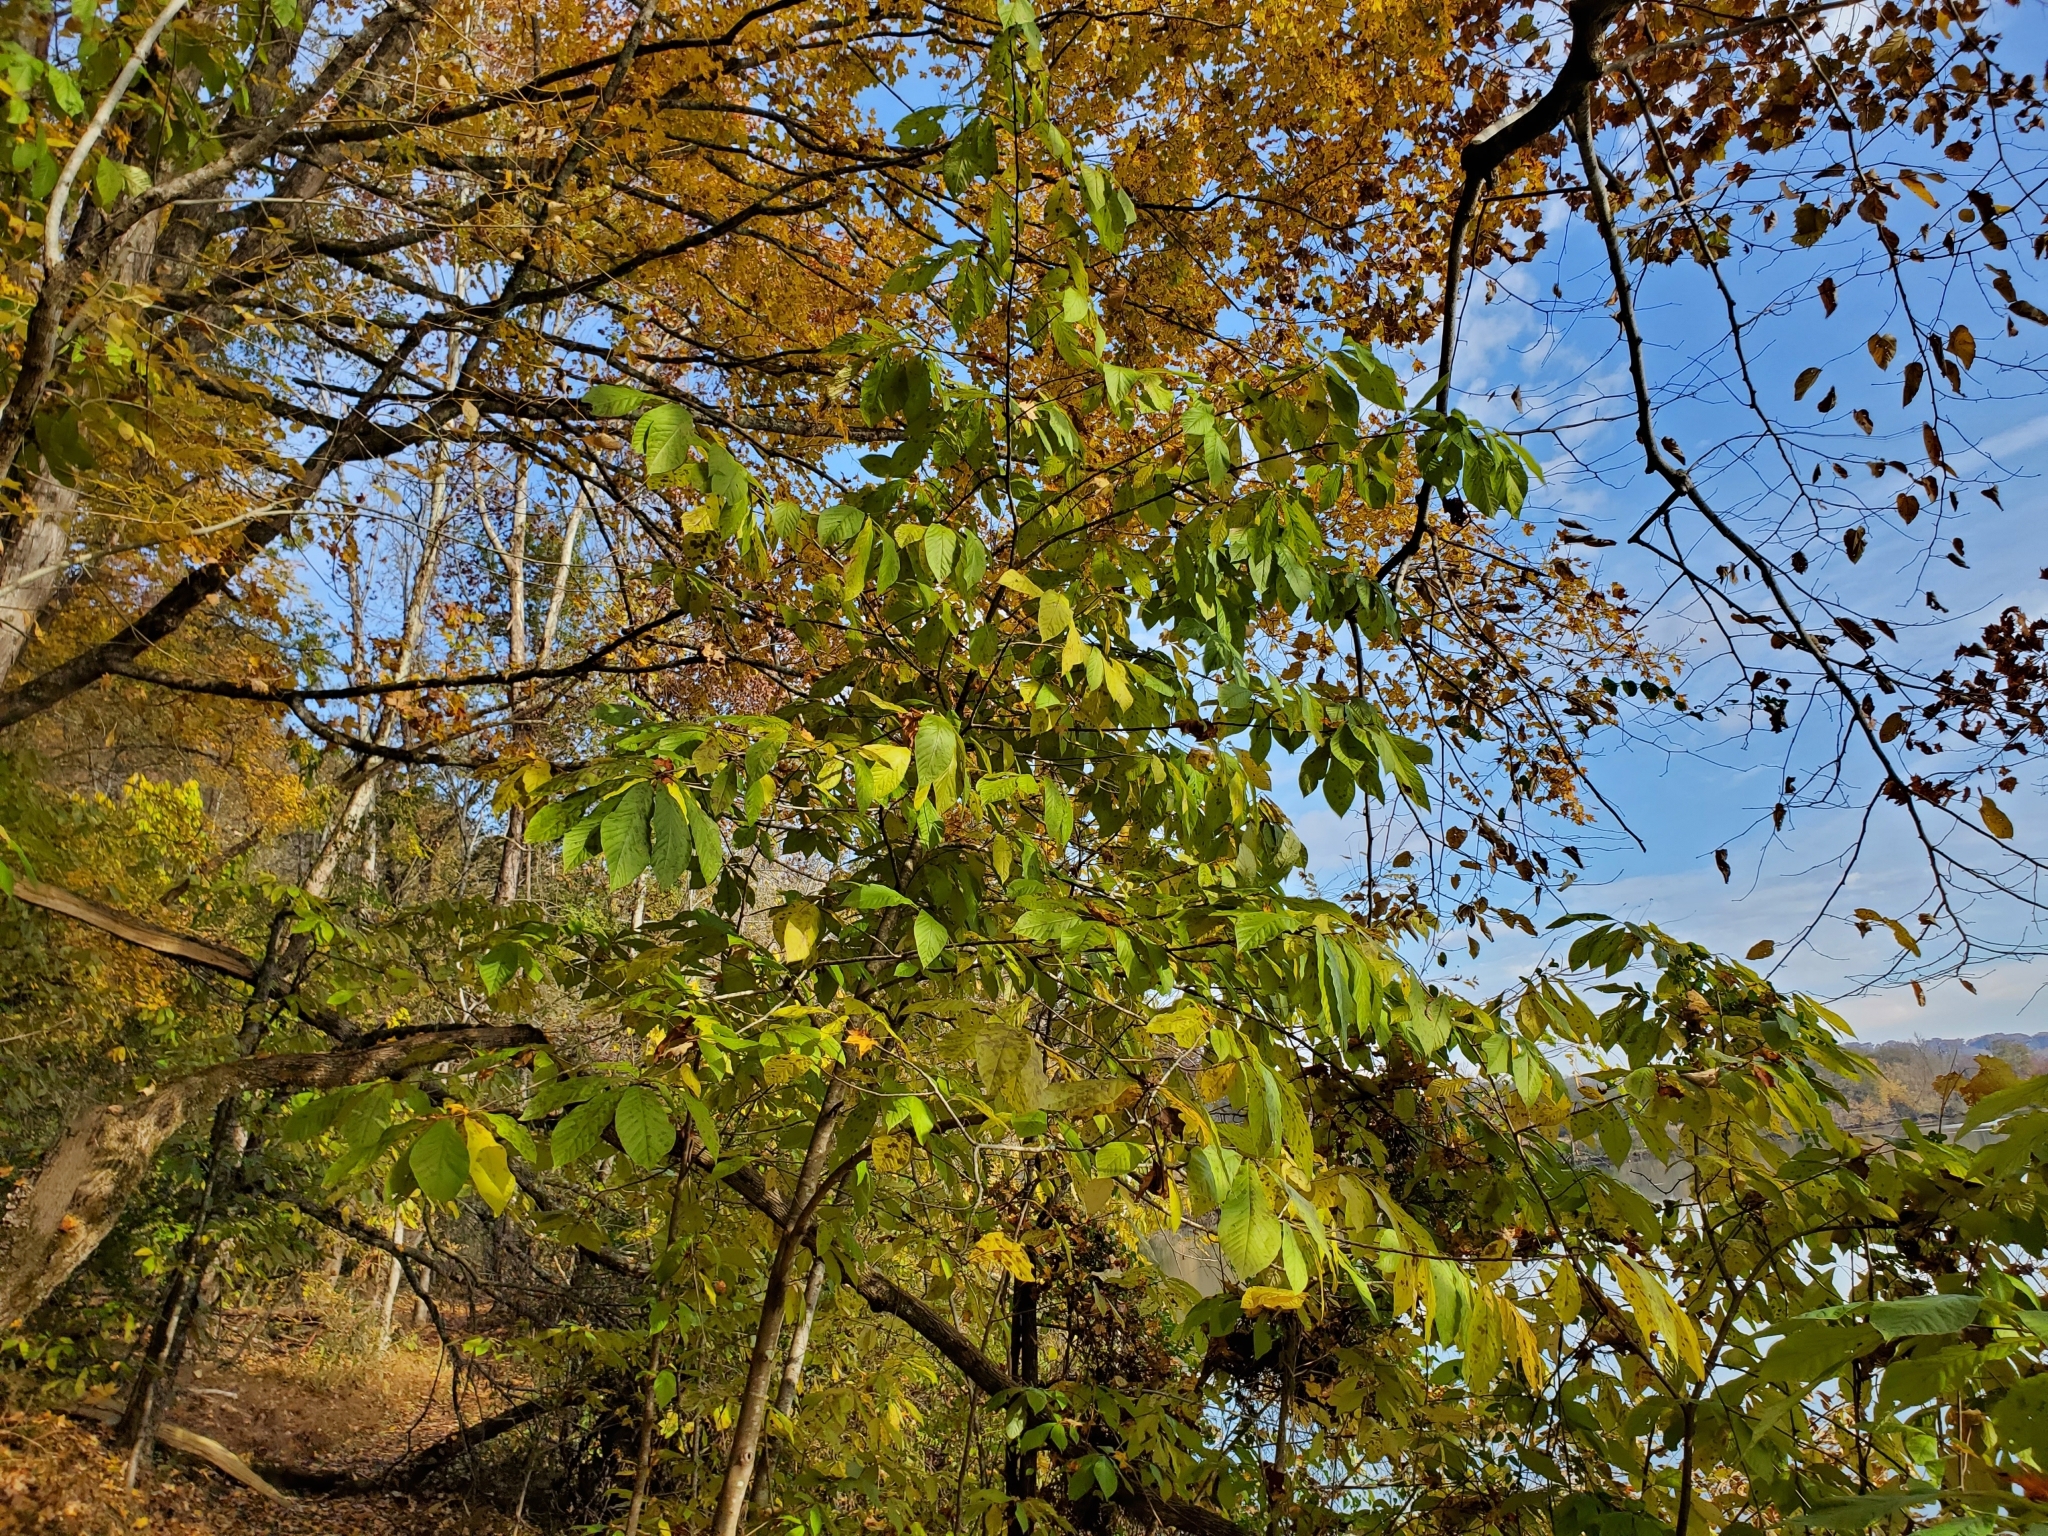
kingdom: Plantae
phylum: Tracheophyta
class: Magnoliopsida
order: Magnoliales
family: Annonaceae
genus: Asimina
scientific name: Asimina triloba
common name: Dog-banana
